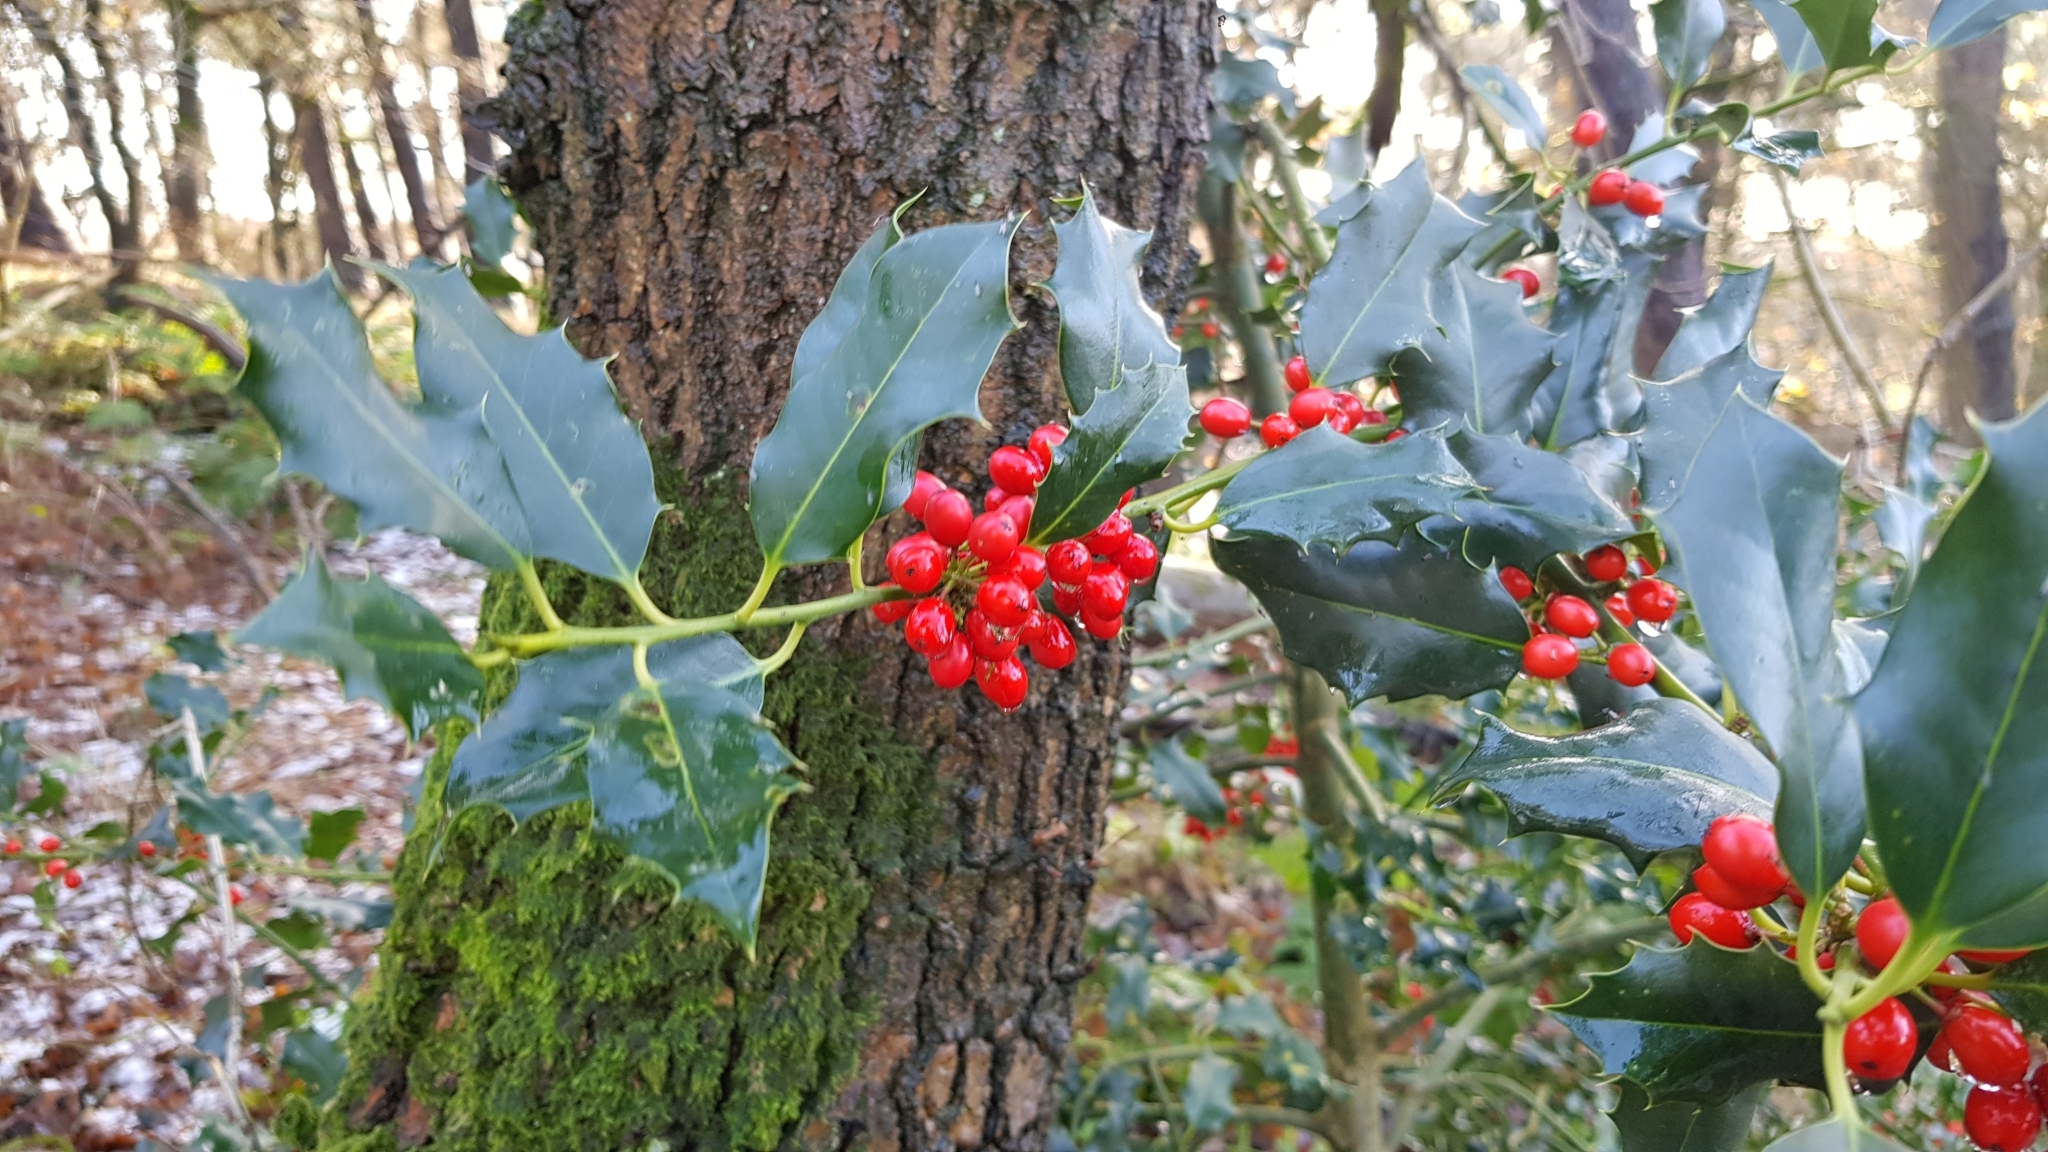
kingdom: Plantae
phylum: Tracheophyta
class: Magnoliopsida
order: Aquifoliales
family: Aquifoliaceae
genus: Ilex
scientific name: Ilex aquifolium
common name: English holly
